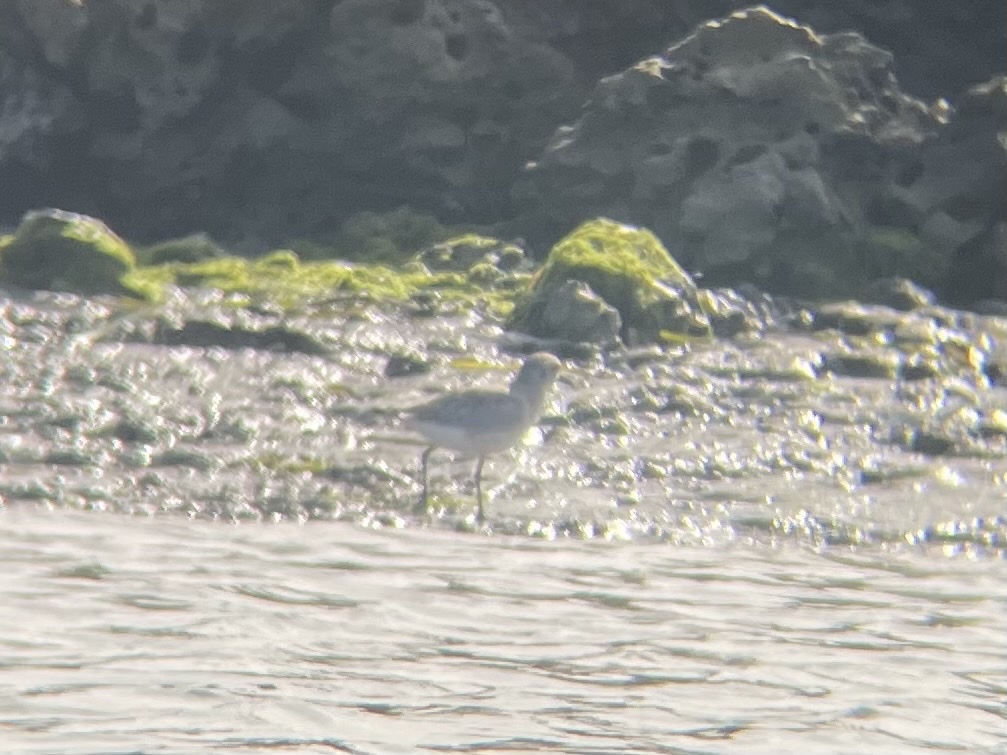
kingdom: Animalia
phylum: Chordata
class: Aves
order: Charadriiformes
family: Charadriidae
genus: Pluvialis
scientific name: Pluvialis squatarola
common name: Grey plover
